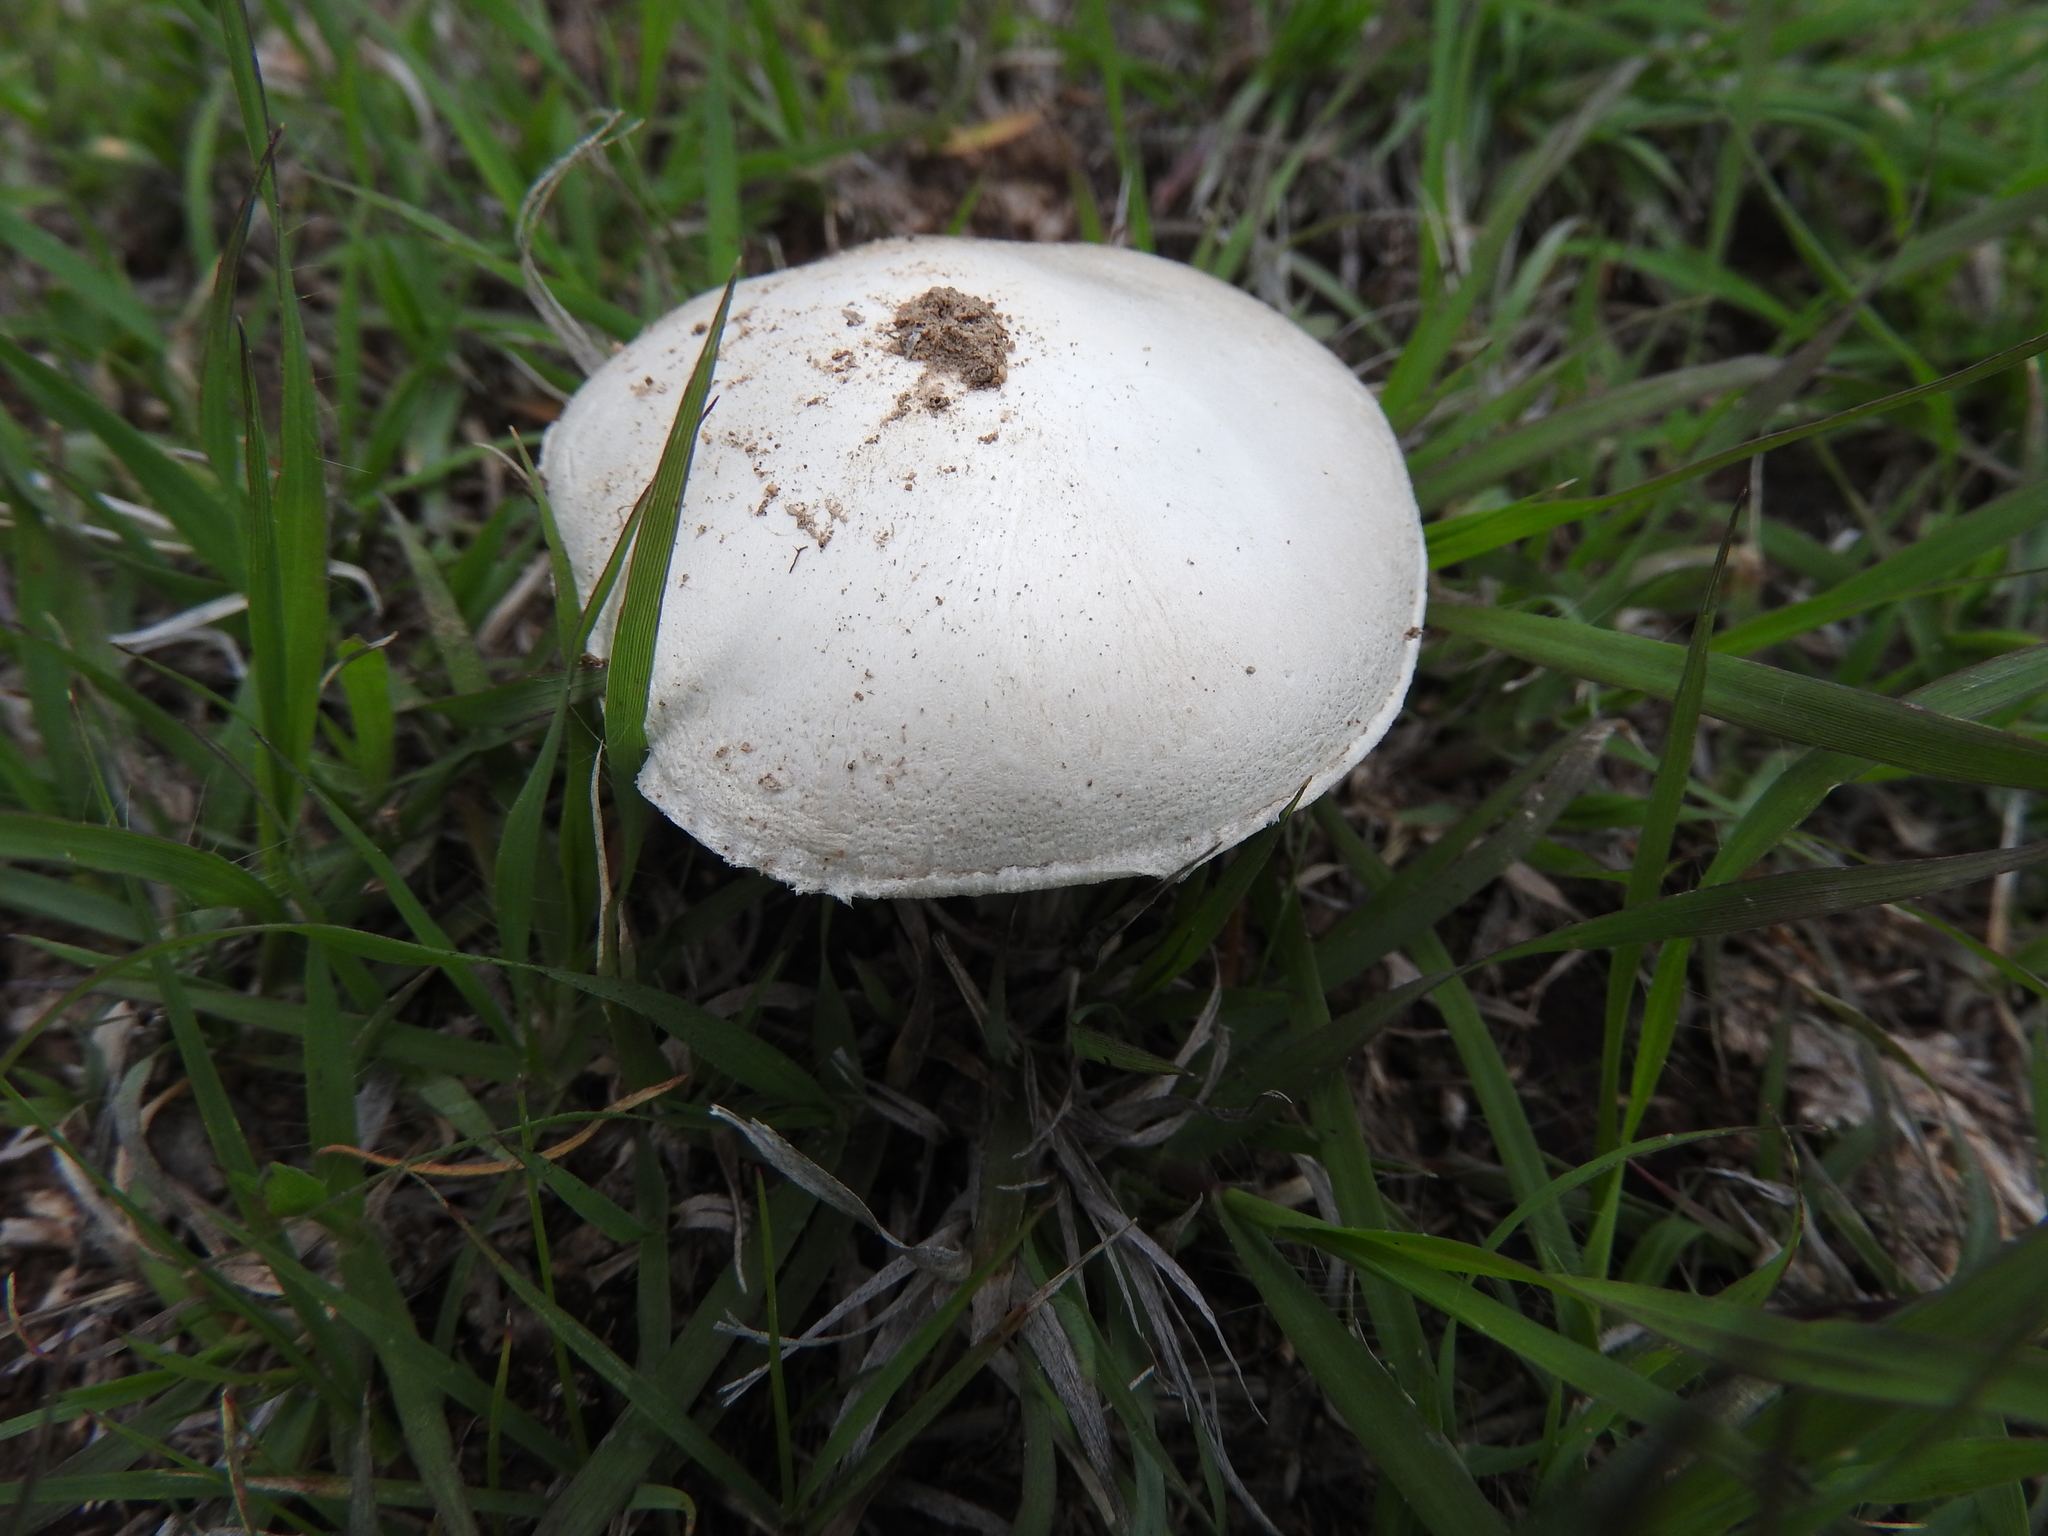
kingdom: Fungi
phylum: Basidiomycota
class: Agaricomycetes
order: Agaricales
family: Agaricaceae
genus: Agaricus
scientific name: Agaricus campestris
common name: Field mushroom
